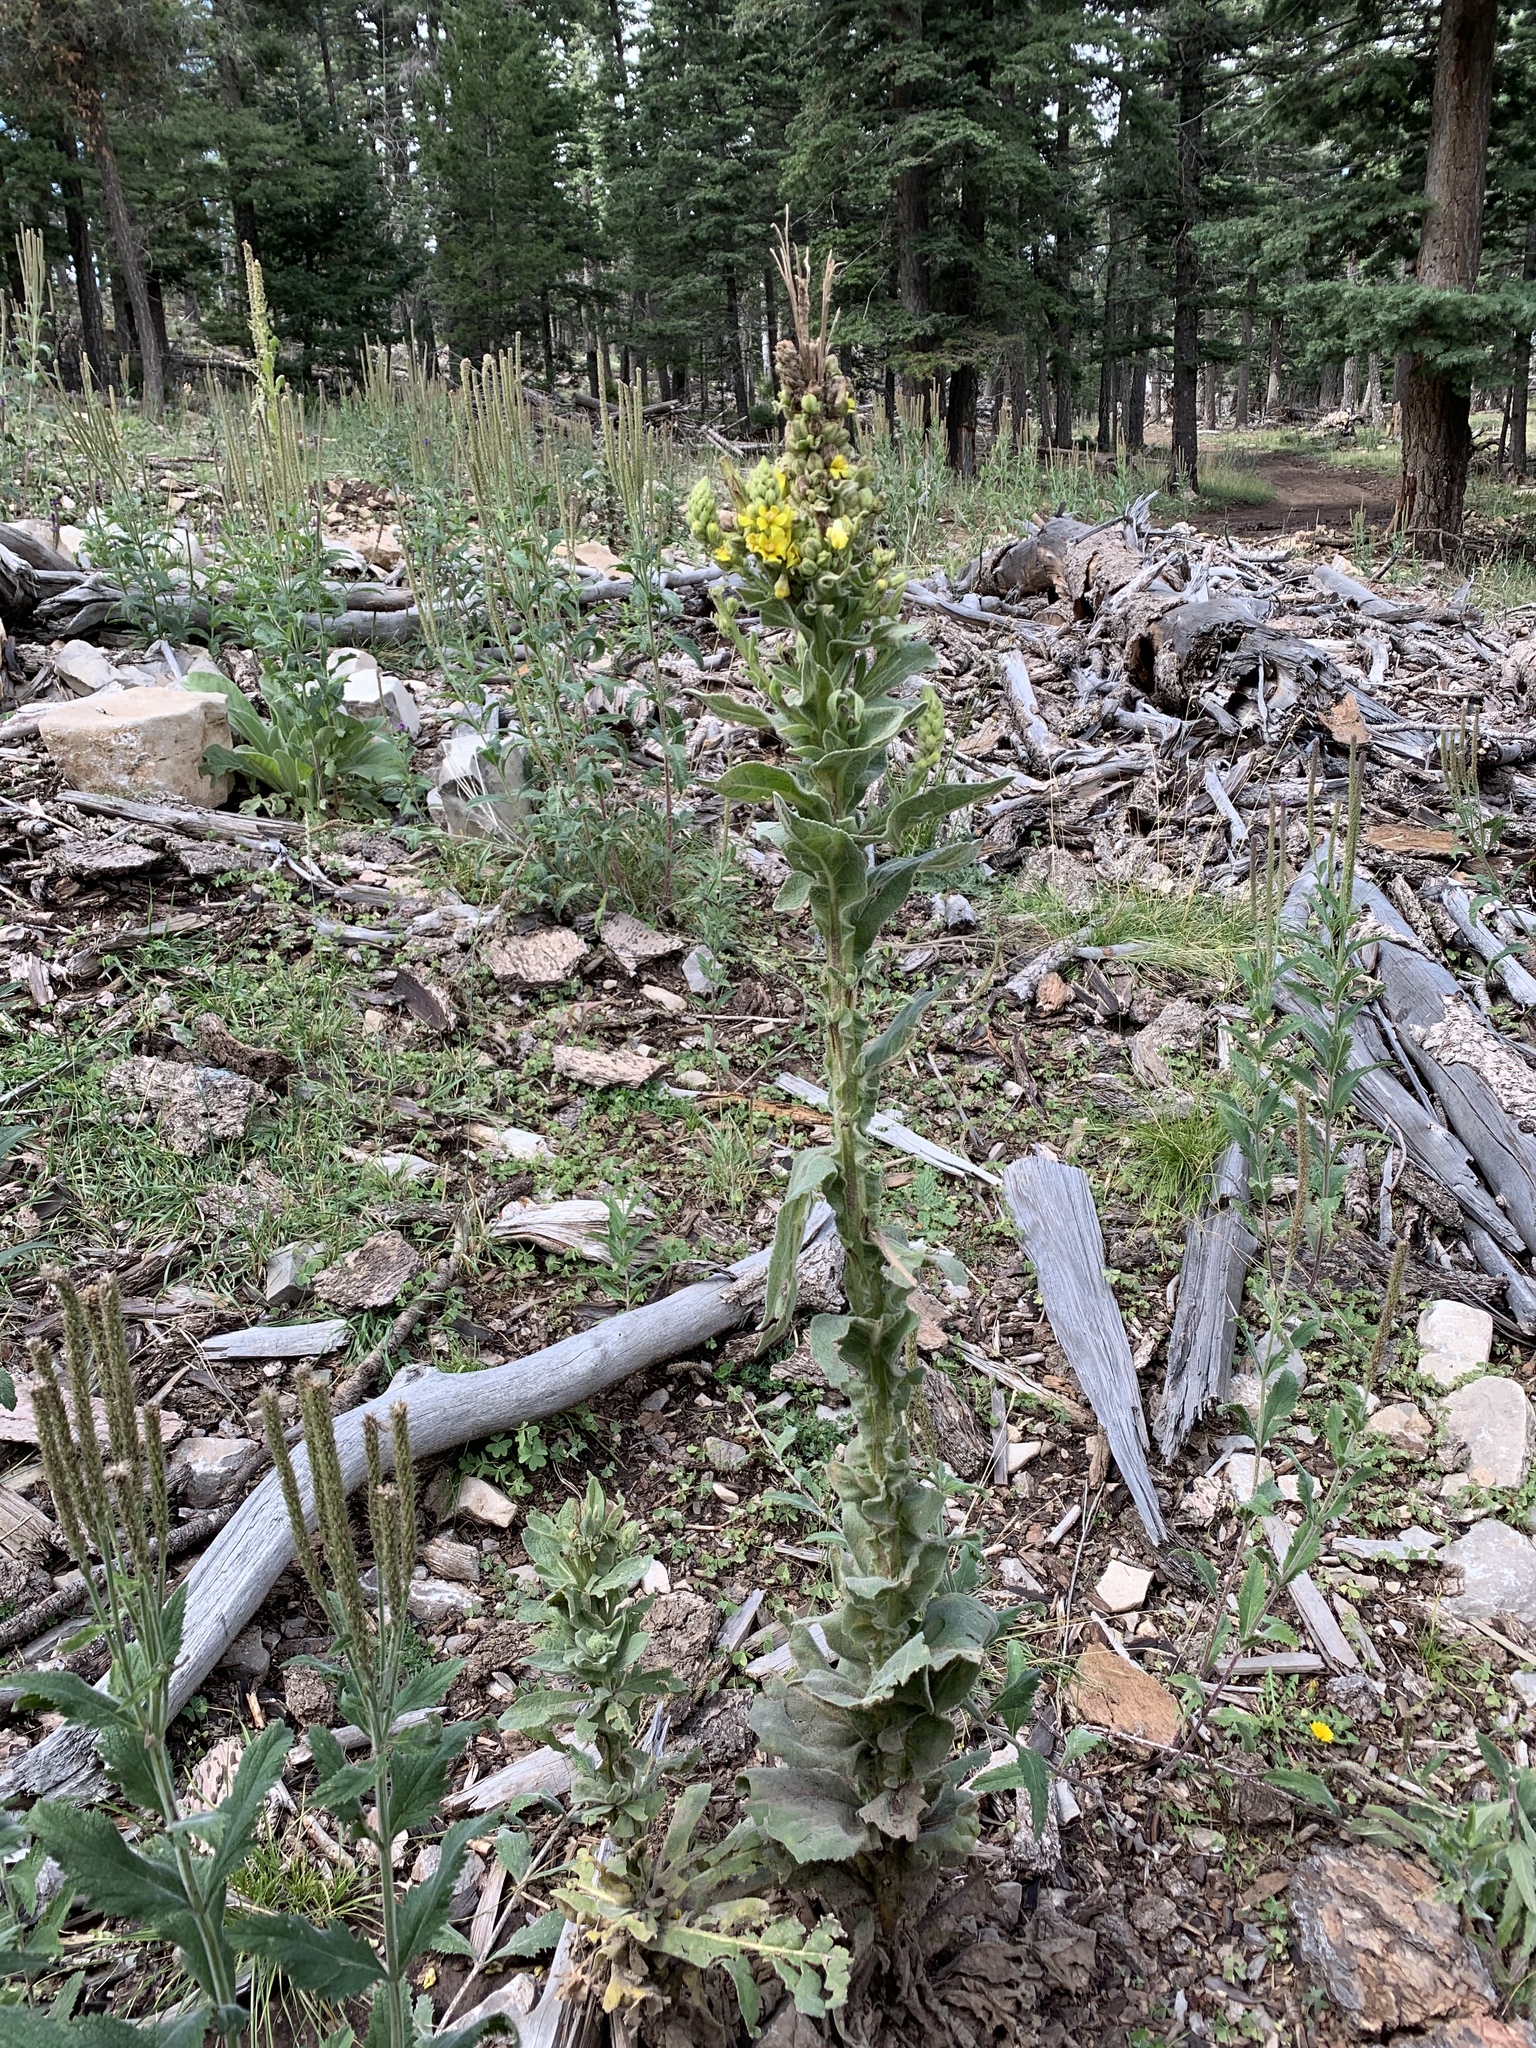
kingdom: Plantae
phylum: Tracheophyta
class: Magnoliopsida
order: Lamiales
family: Scrophulariaceae
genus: Verbascum
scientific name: Verbascum thapsus
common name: Common mullein
